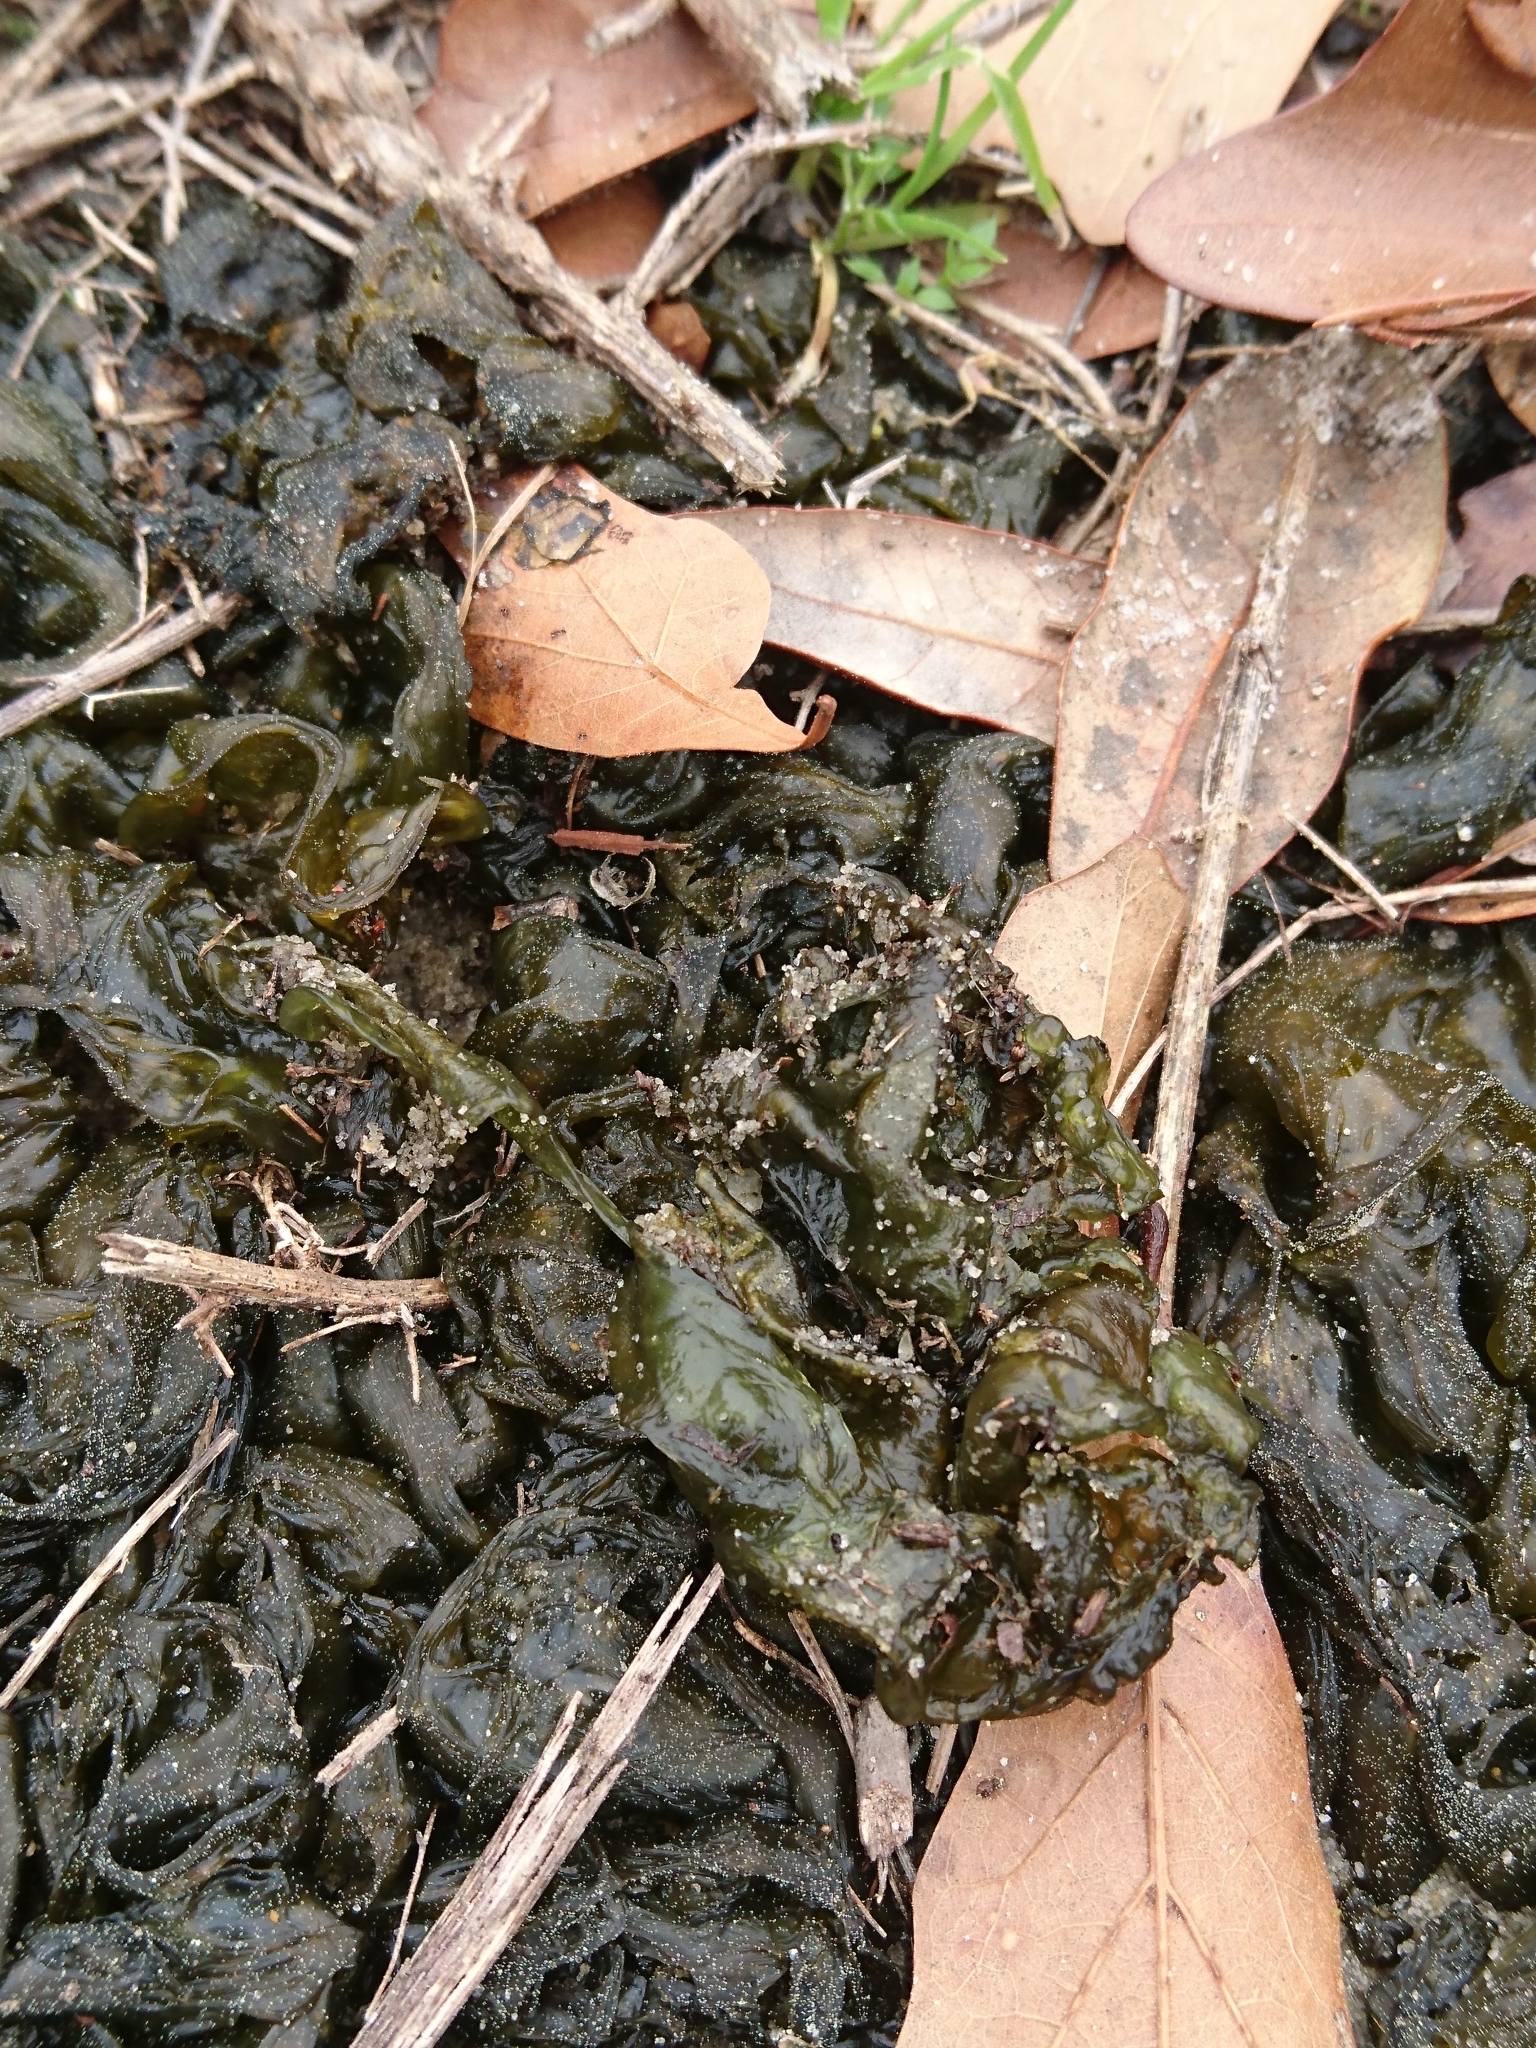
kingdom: Bacteria
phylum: Cyanobacteria
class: Cyanobacteriia
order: Cyanobacteriales
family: Nostocaceae
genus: Nostoc
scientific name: Nostoc commune
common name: Star jelly
